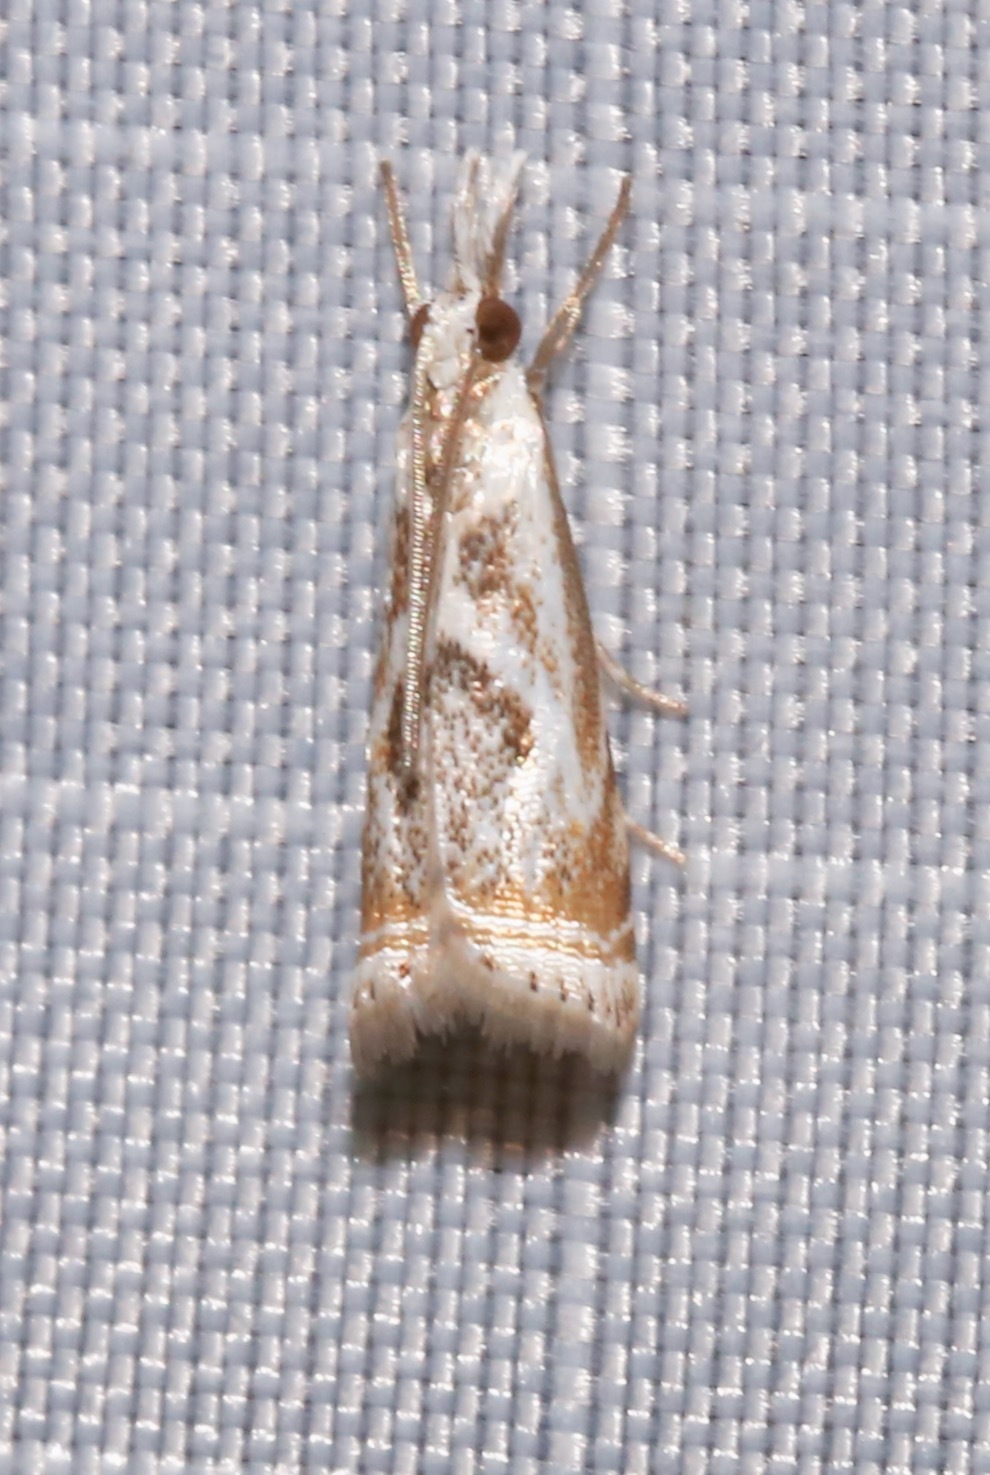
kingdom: Animalia
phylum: Arthropoda
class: Insecta
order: Lepidoptera
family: Crambidae
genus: Microcrambus
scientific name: Microcrambus elegans
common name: Elegant grass-veneer
